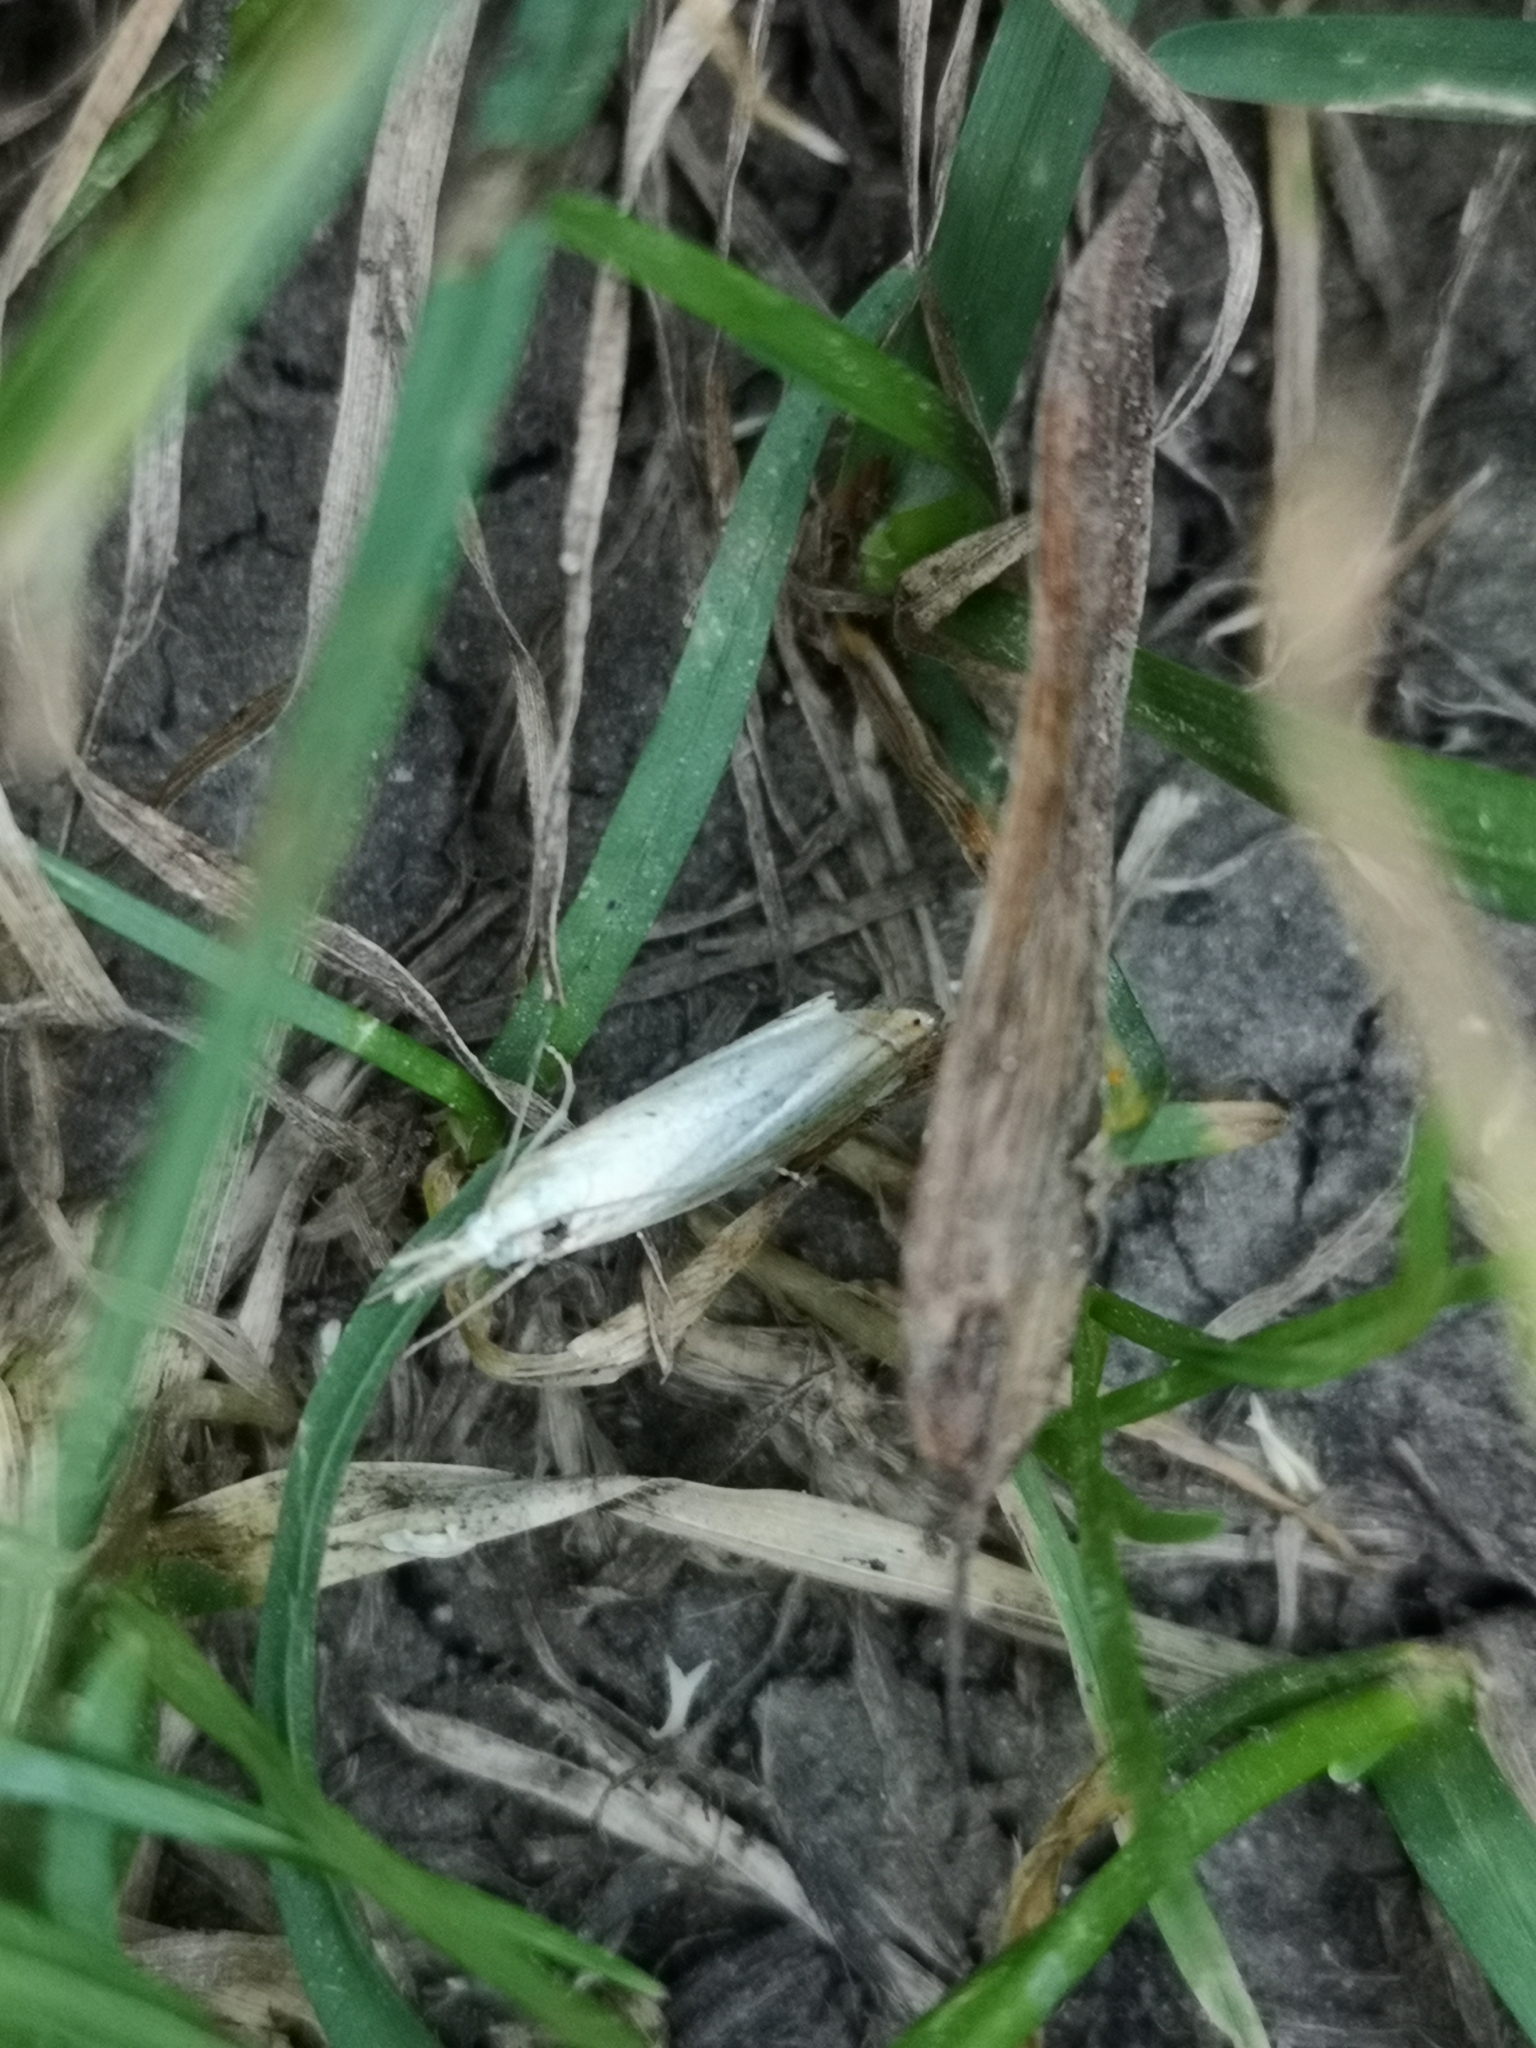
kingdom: Animalia
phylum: Arthropoda
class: Insecta
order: Lepidoptera
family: Crambidae
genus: Crambus
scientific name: Crambus perlellus
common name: Yellow satin veneer
